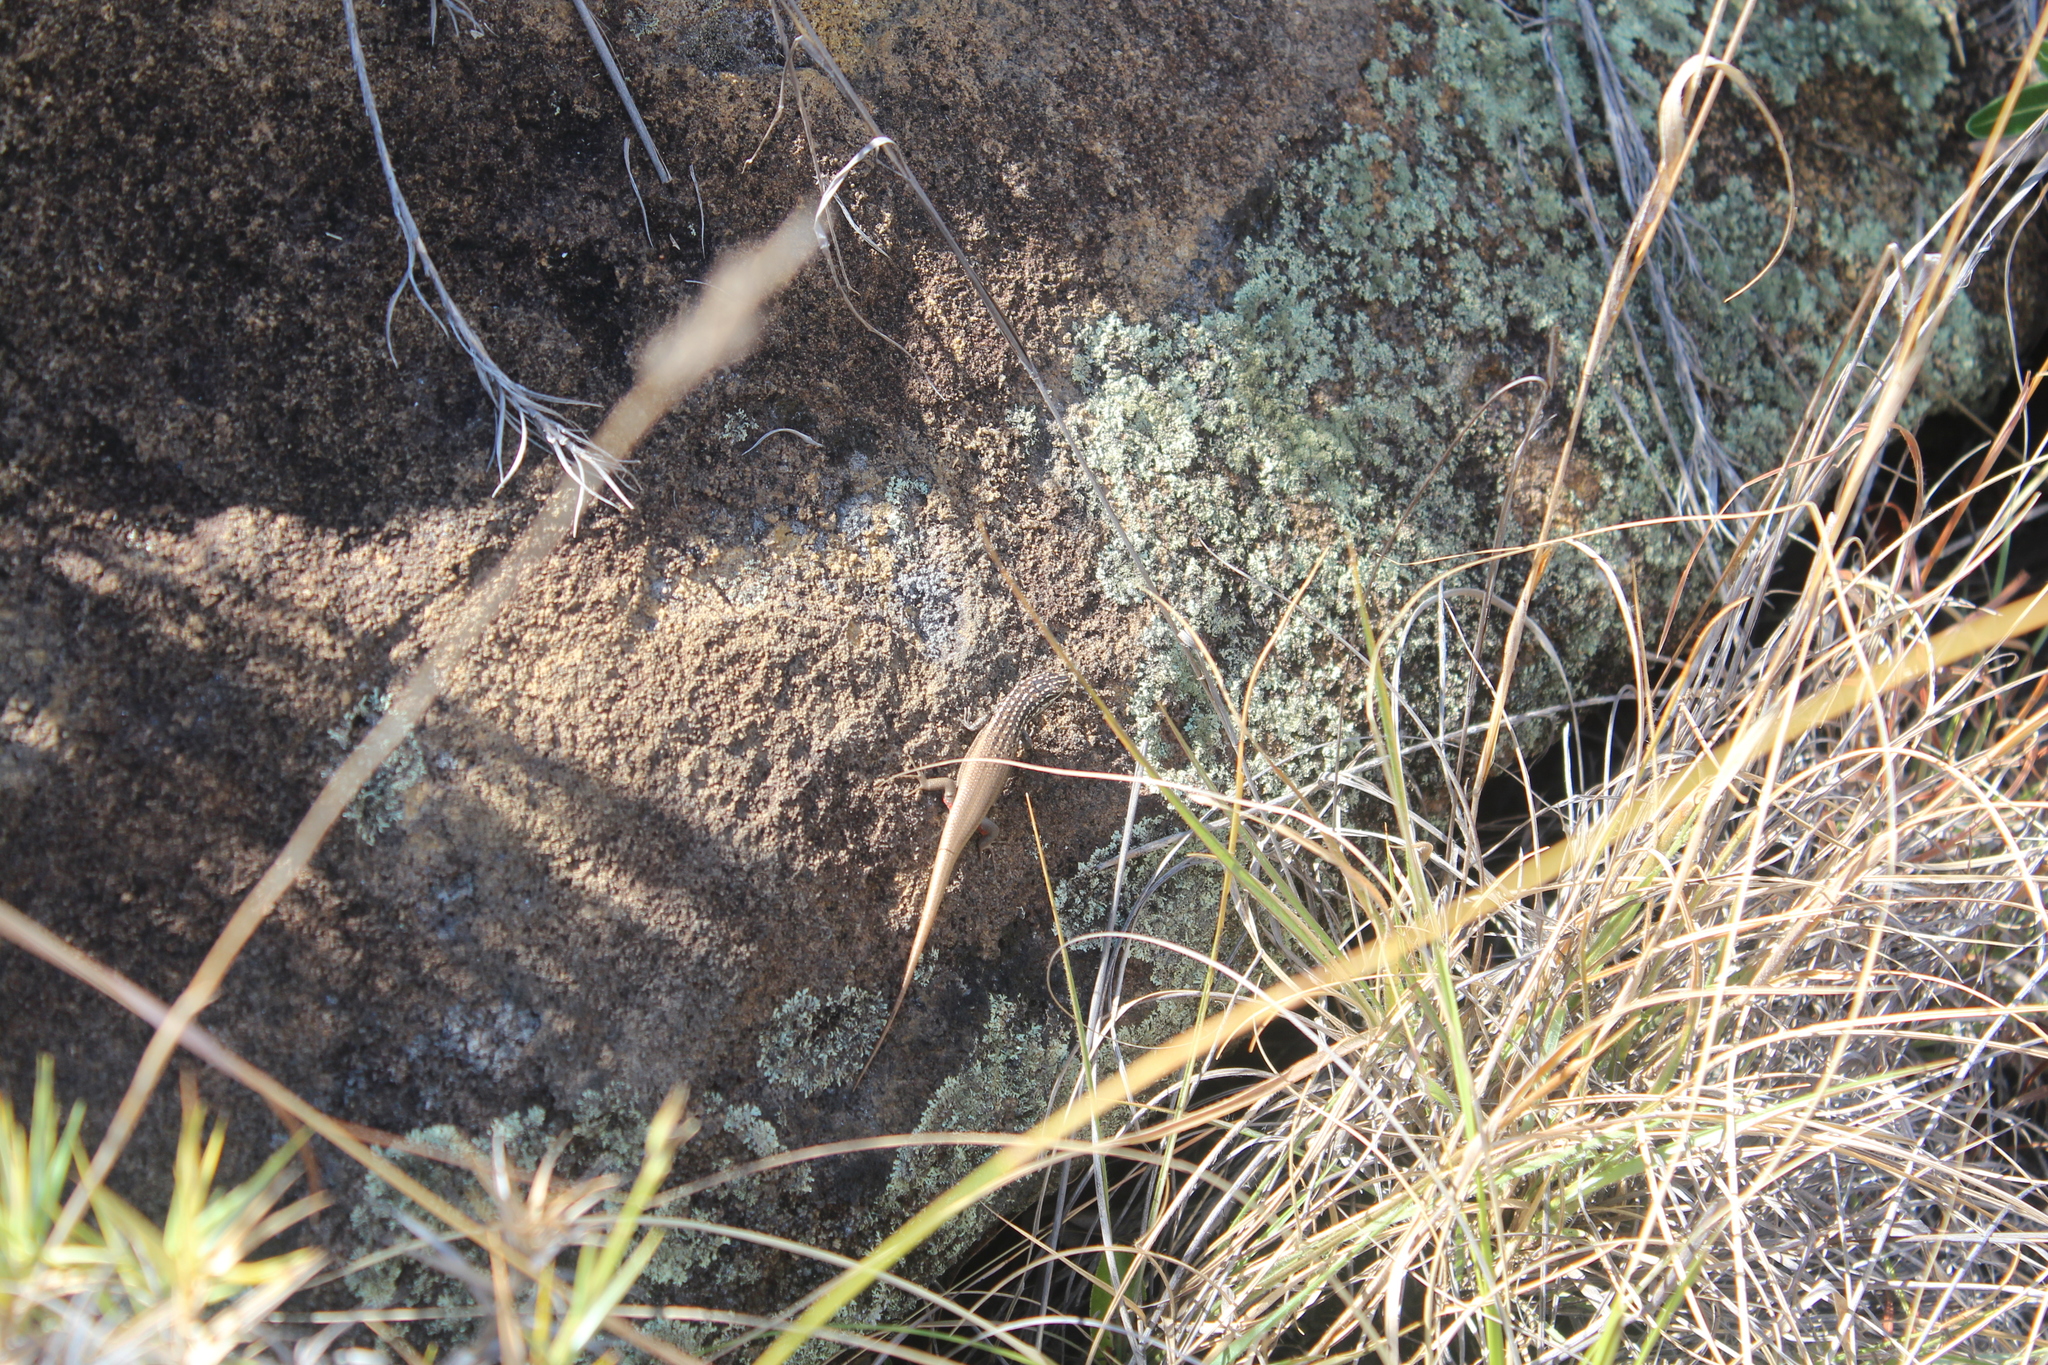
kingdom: Animalia
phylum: Chordata
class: Squamata
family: Scincidae
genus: Trachylepis
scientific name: Trachylepis aureopunctata
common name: Gold-spotted mabuya
